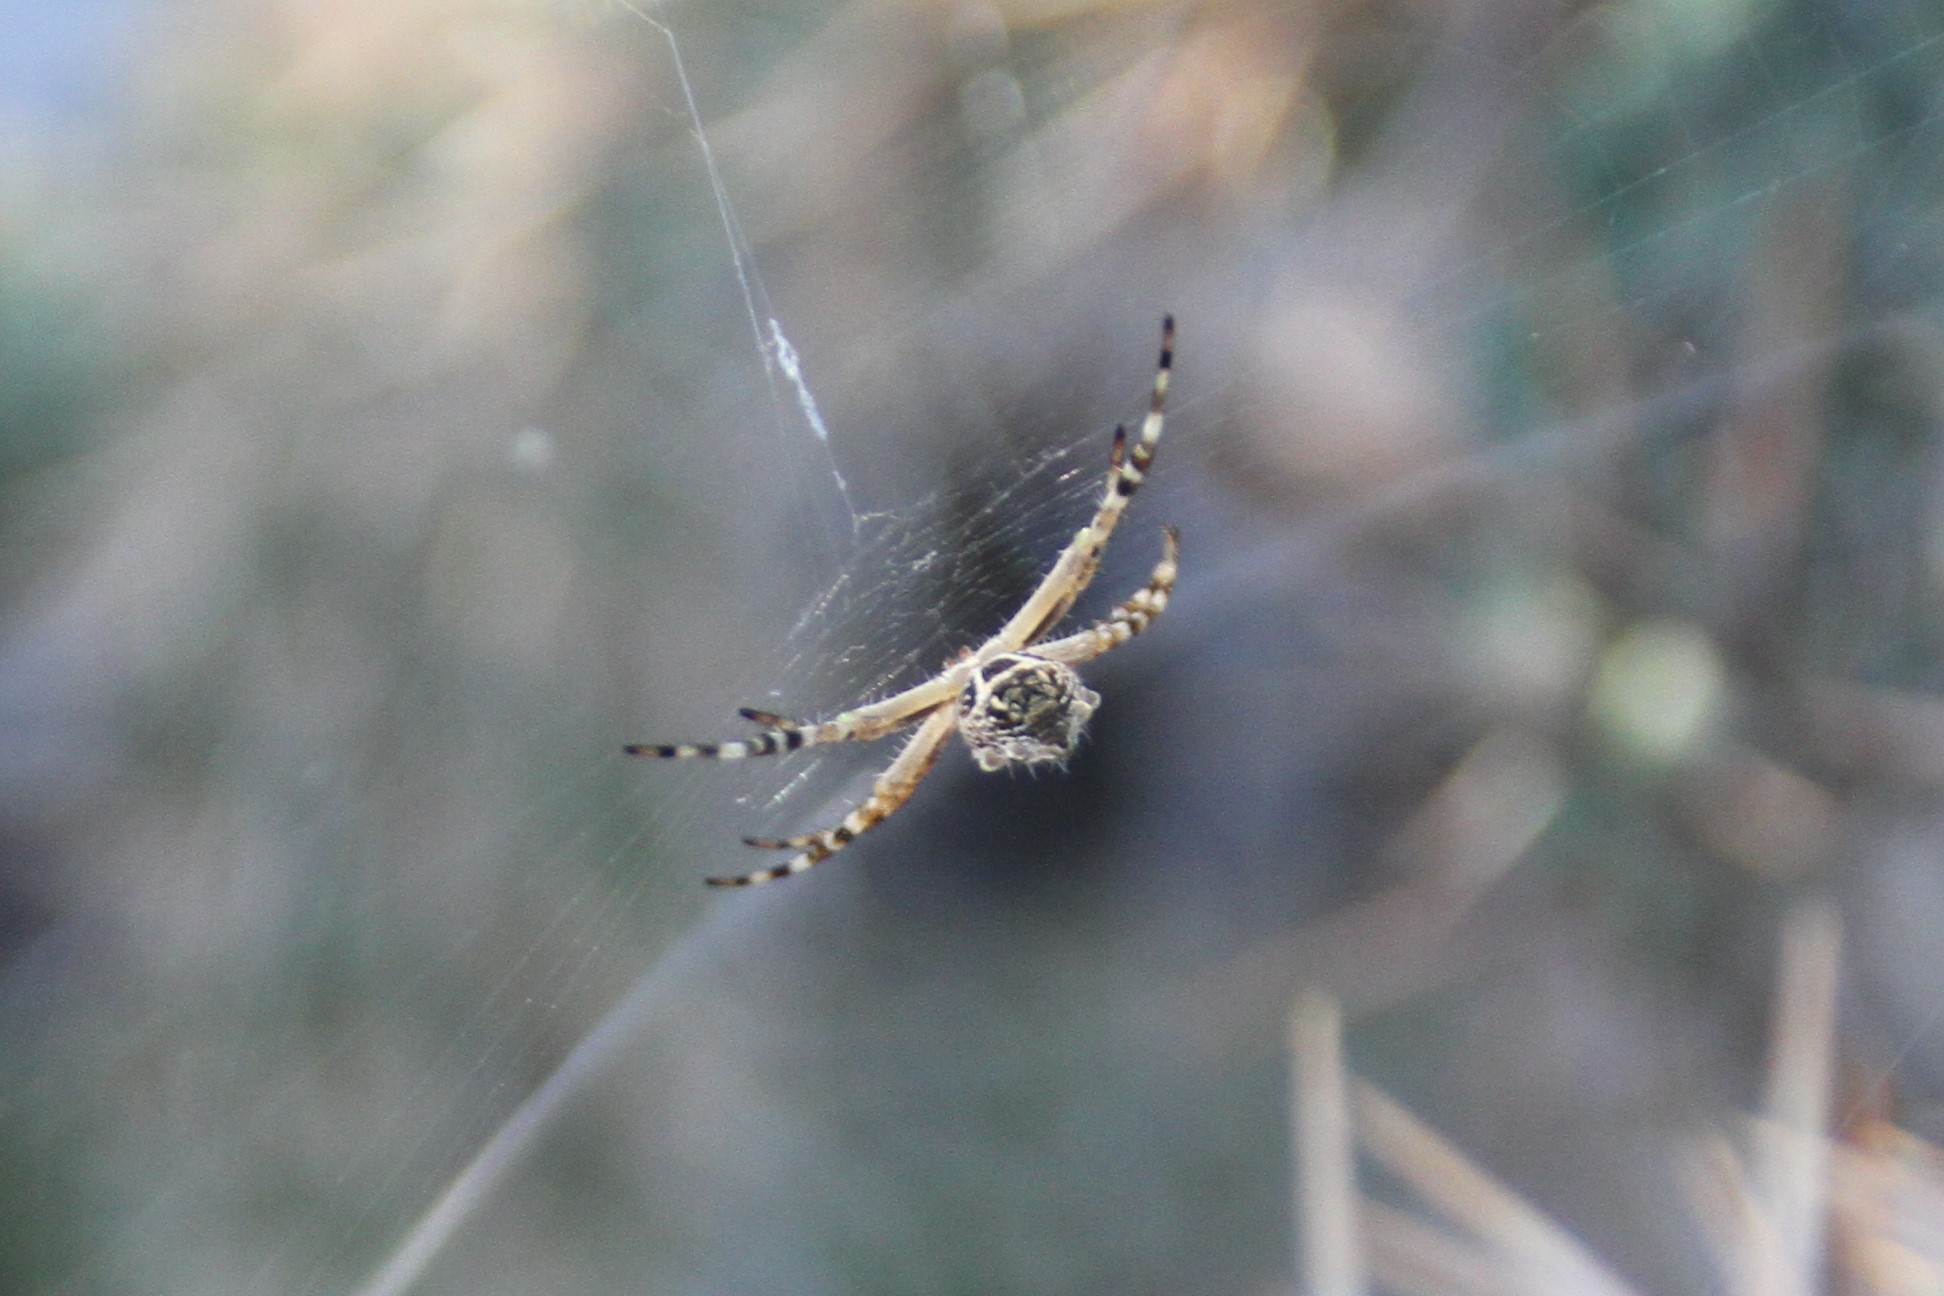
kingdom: Animalia
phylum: Arthropoda
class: Arachnida
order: Araneae
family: Araneidae
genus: Argiope
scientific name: Argiope argentata
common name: Orb weavers
